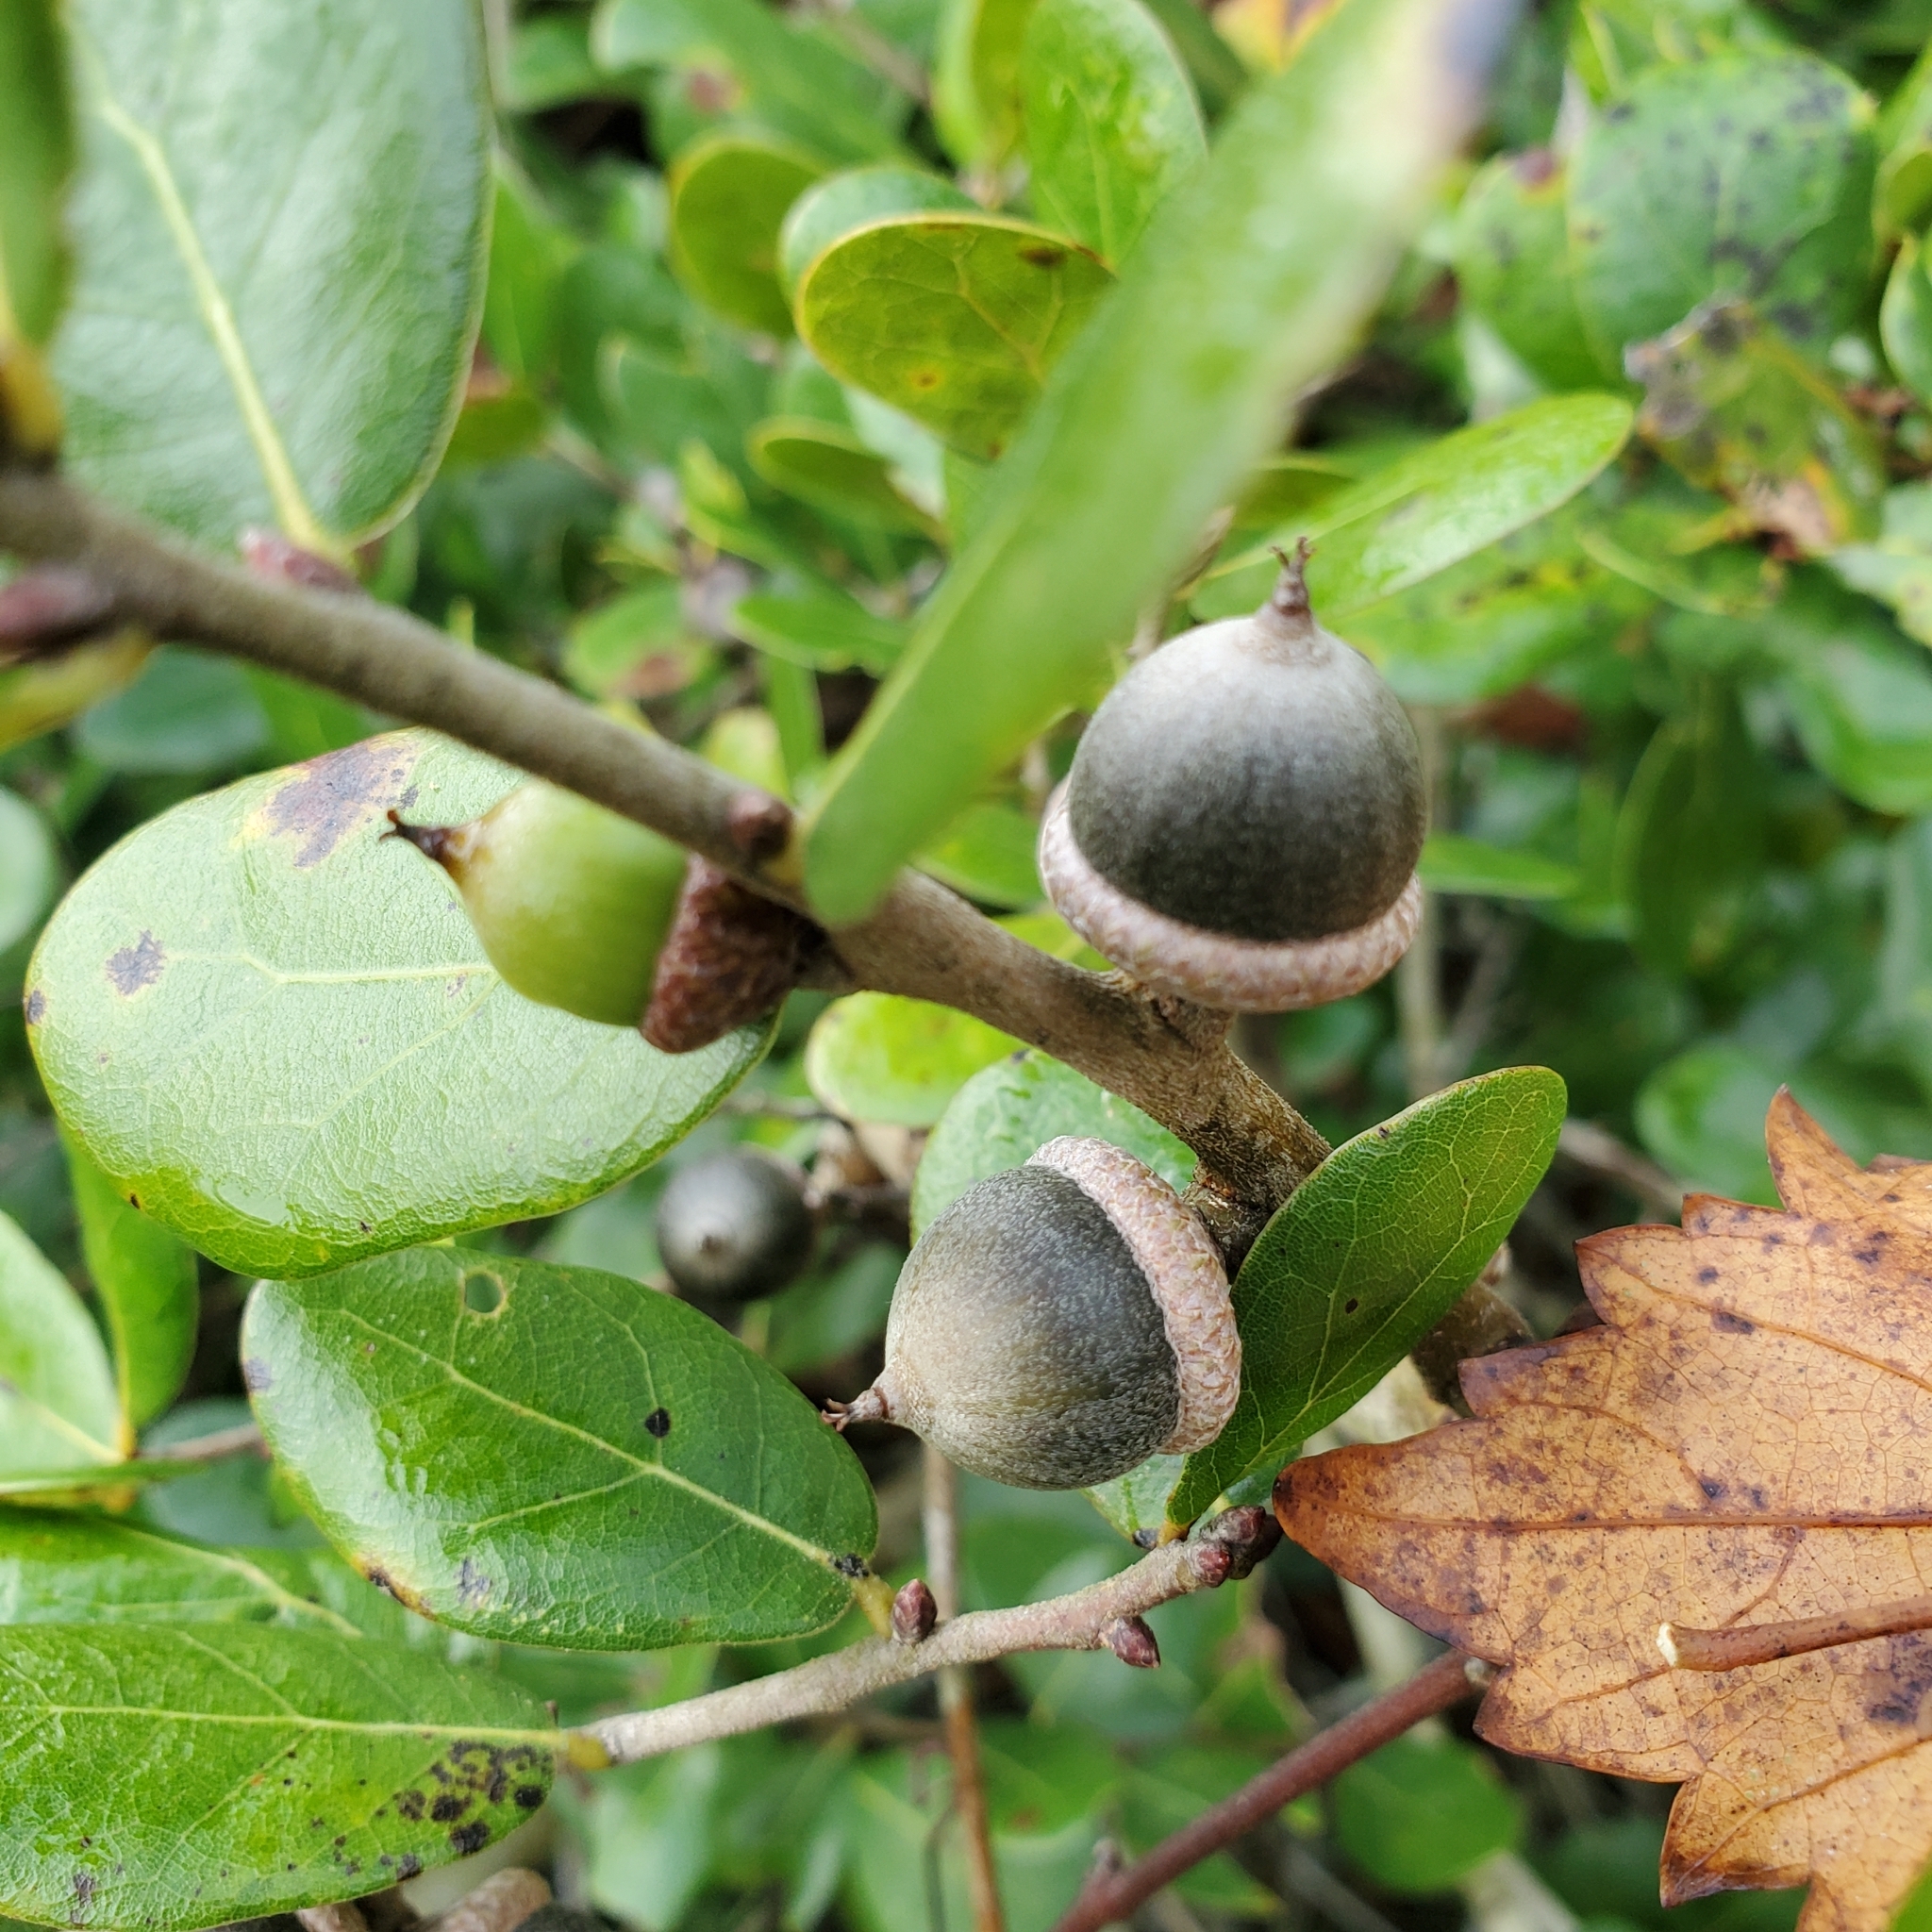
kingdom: Plantae
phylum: Tracheophyta
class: Magnoliopsida
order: Fagales
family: Fagaceae
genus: Quercus
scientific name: Quercus myrtifolia
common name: Myrtle oak
